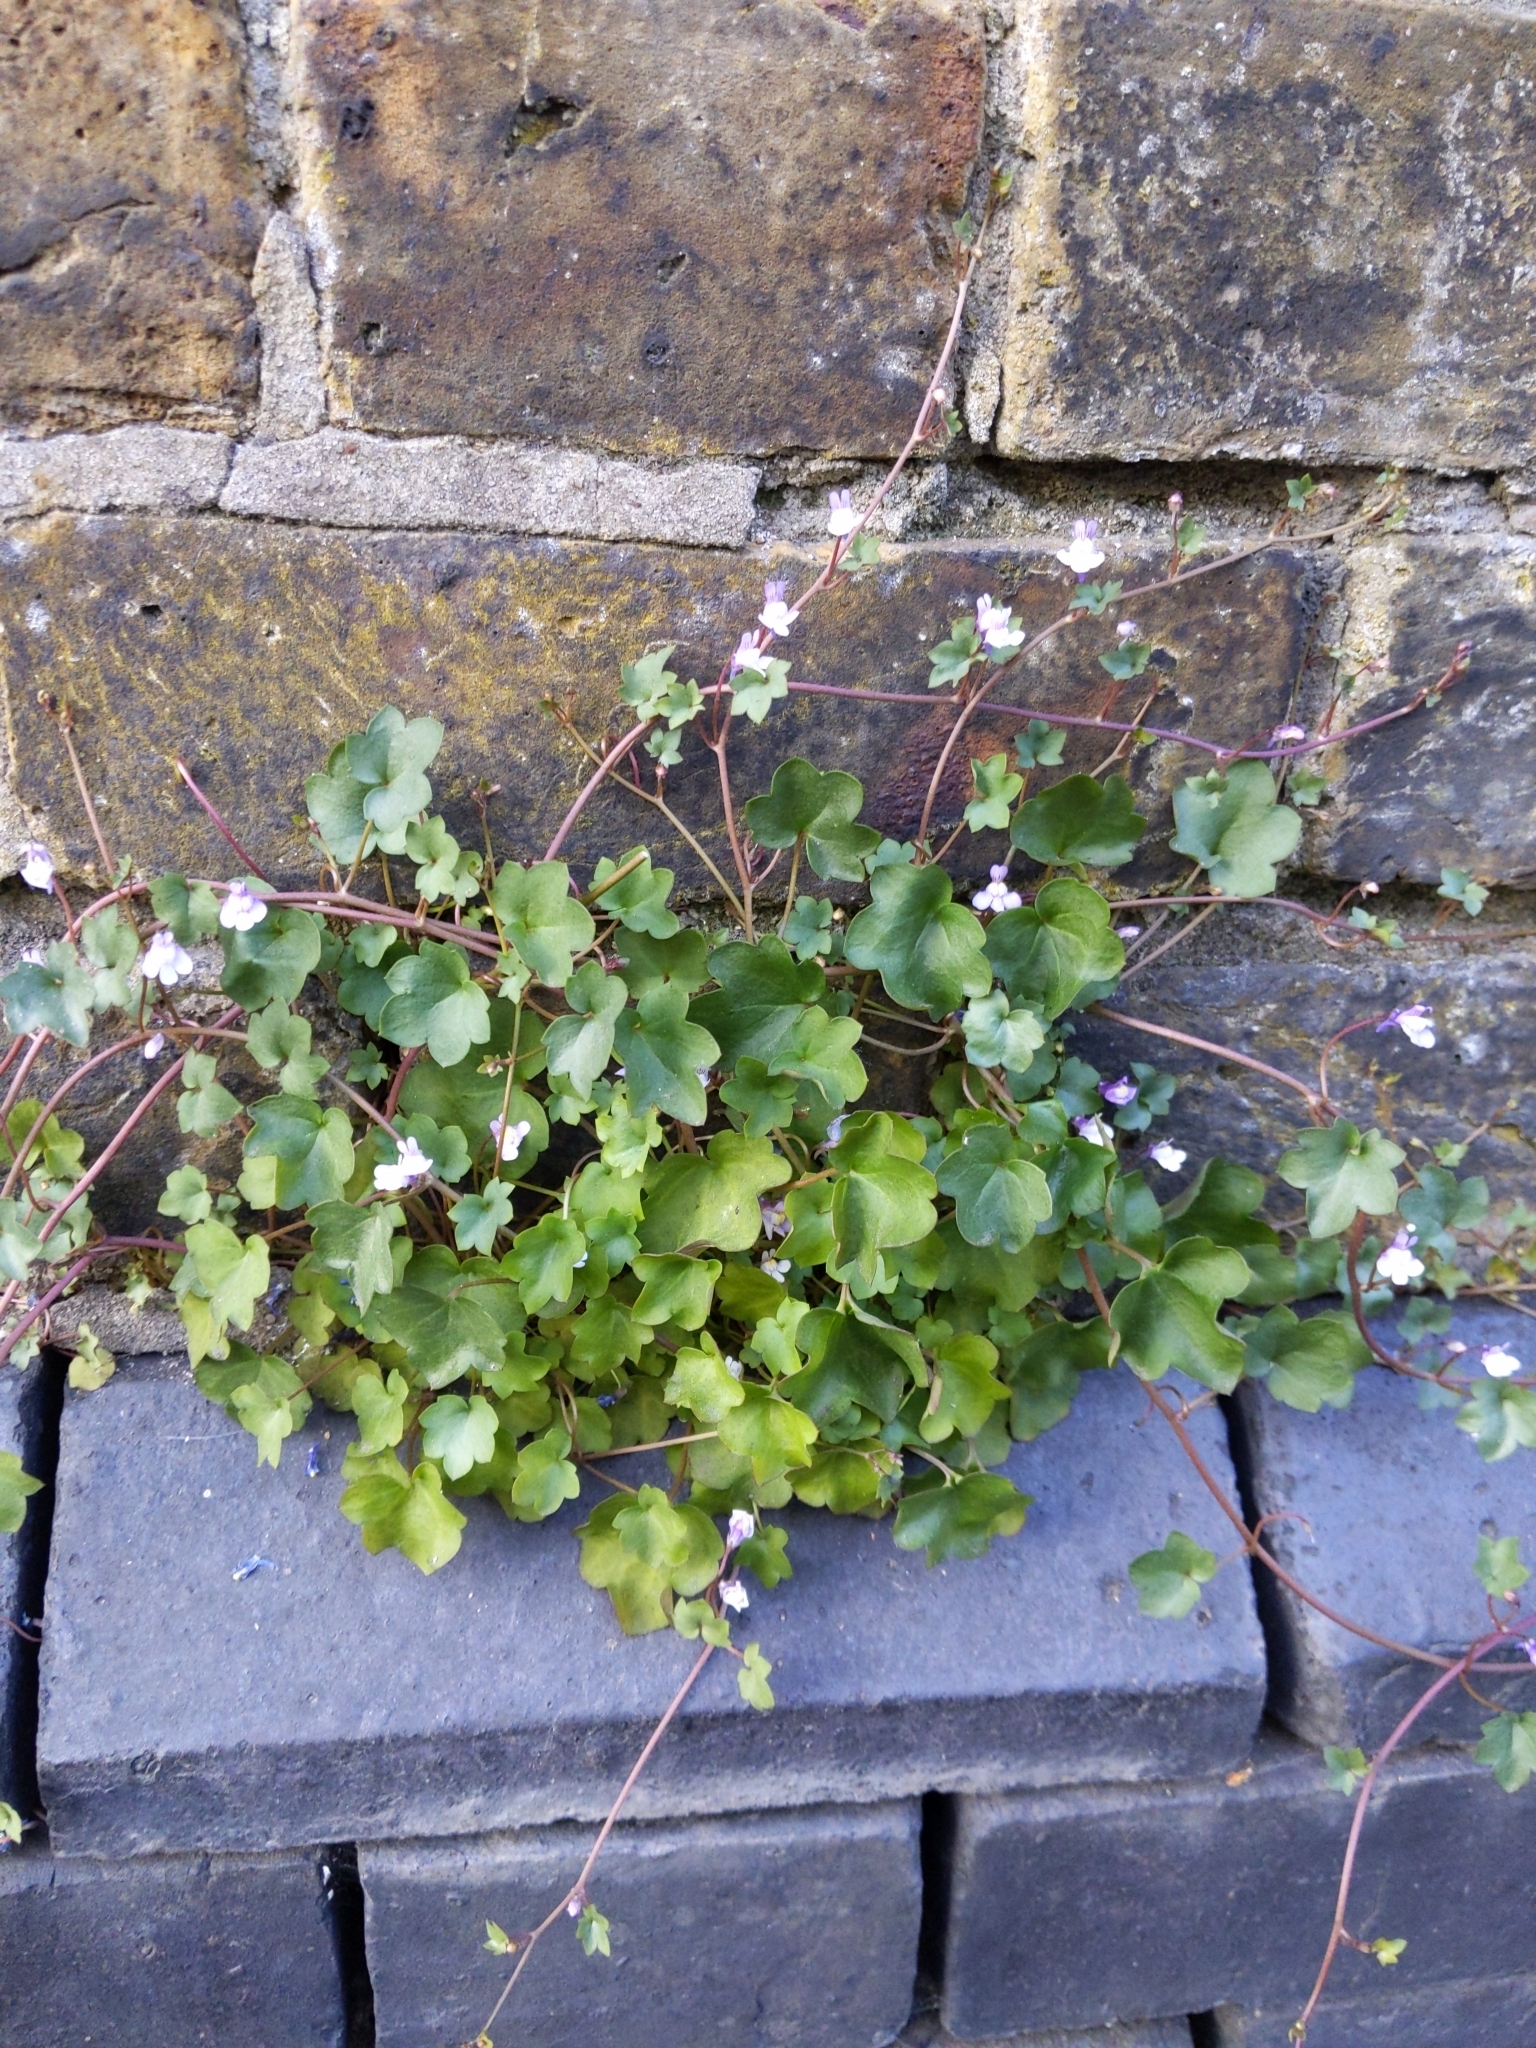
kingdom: Plantae
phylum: Tracheophyta
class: Magnoliopsida
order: Lamiales
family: Plantaginaceae
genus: Cymbalaria
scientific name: Cymbalaria muralis
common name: Ivy-leaved toadflax
